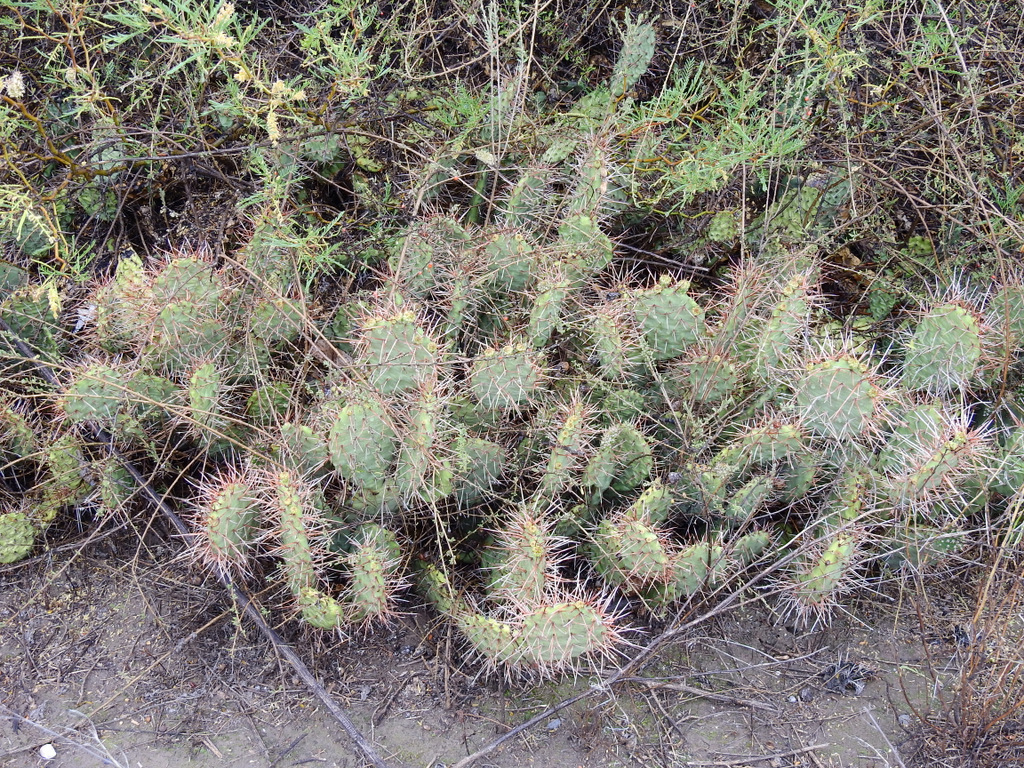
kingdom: Plantae
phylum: Tracheophyta
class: Magnoliopsida
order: Caryophyllales
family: Cactaceae
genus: Opuntia
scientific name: Opuntia sulphurea
